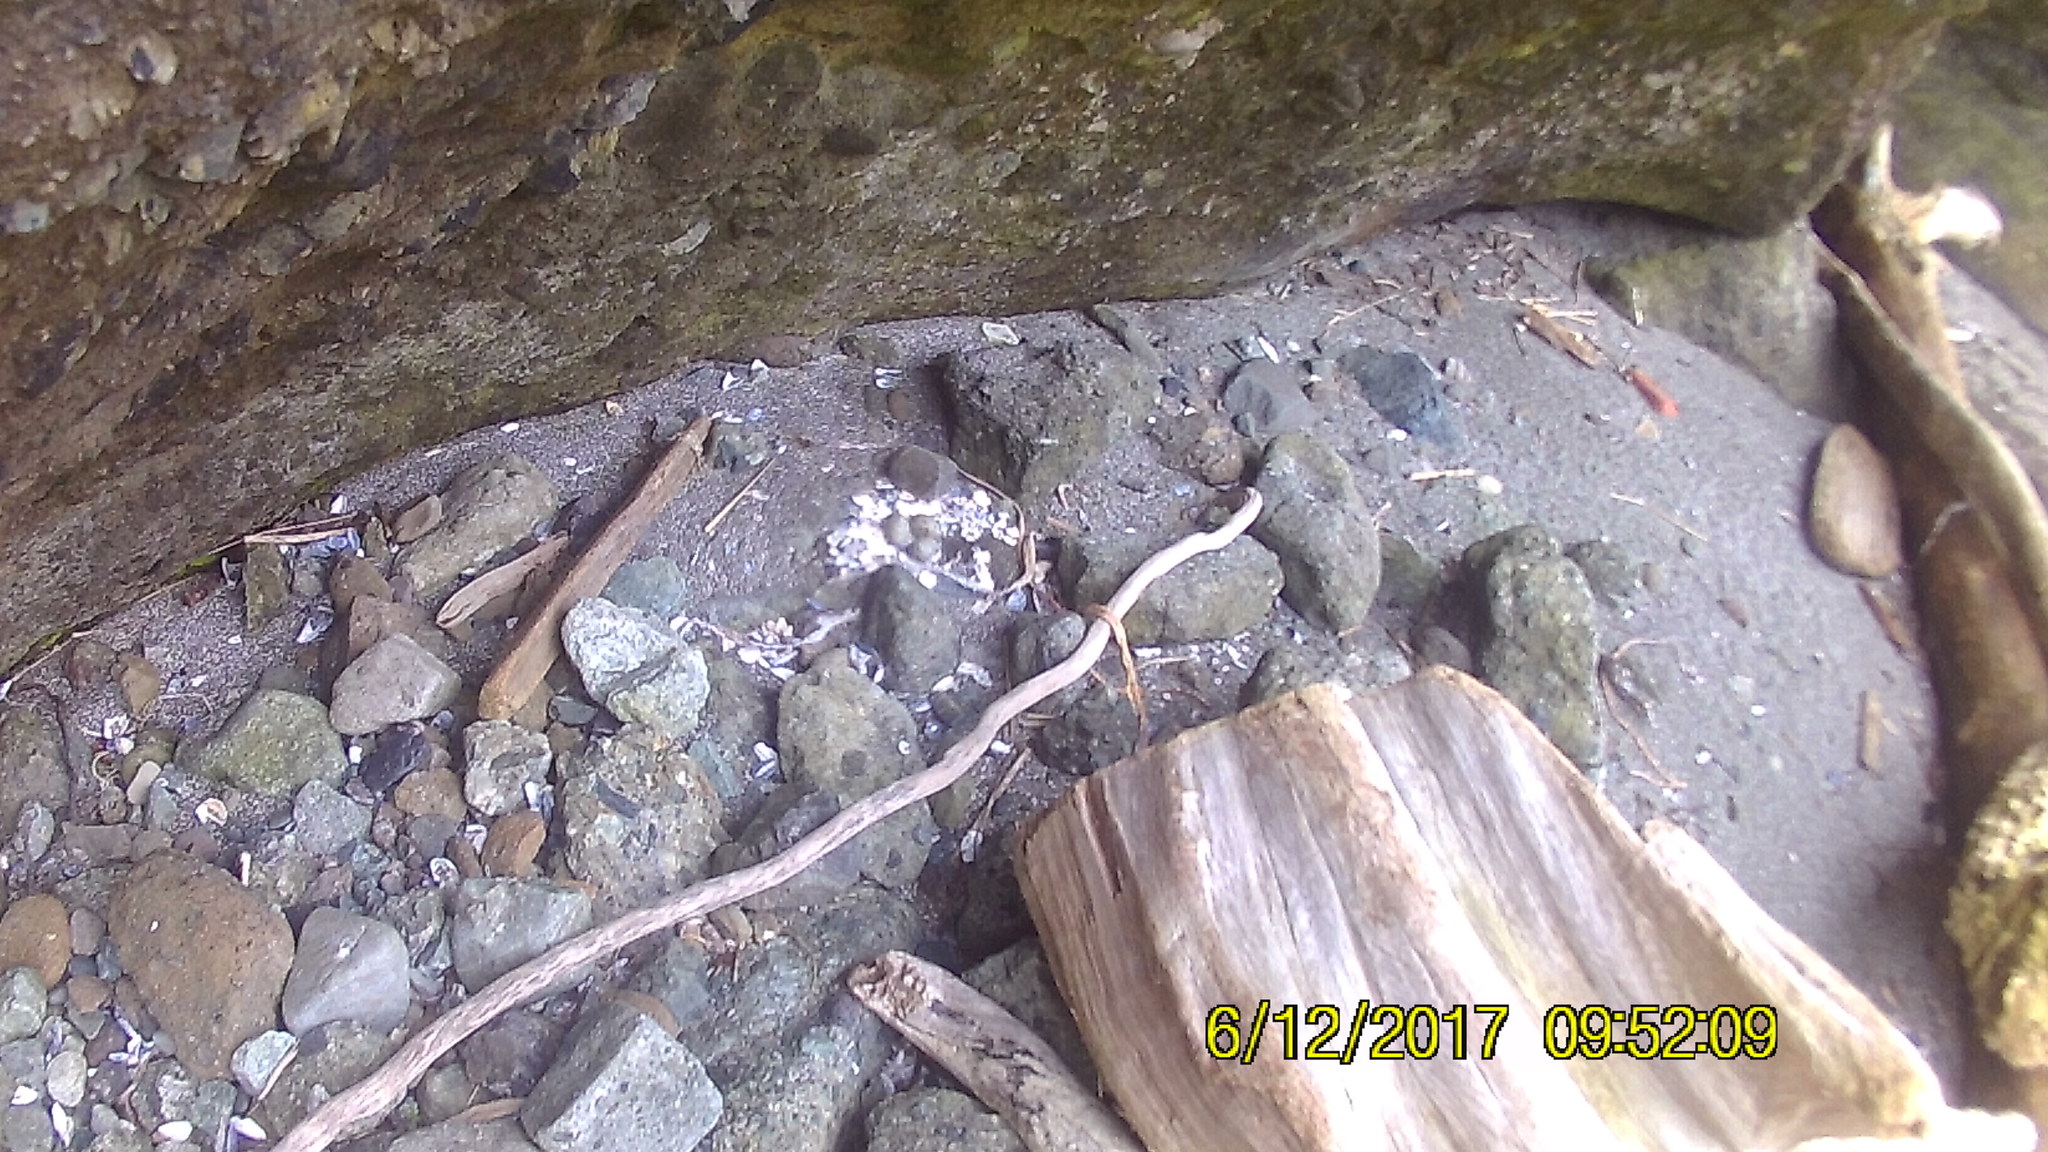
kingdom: Animalia
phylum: Chordata
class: Aves
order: Charadriiformes
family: Haematopodidae
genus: Haematopus
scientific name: Haematopus bachmani
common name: Black oystercatcher
